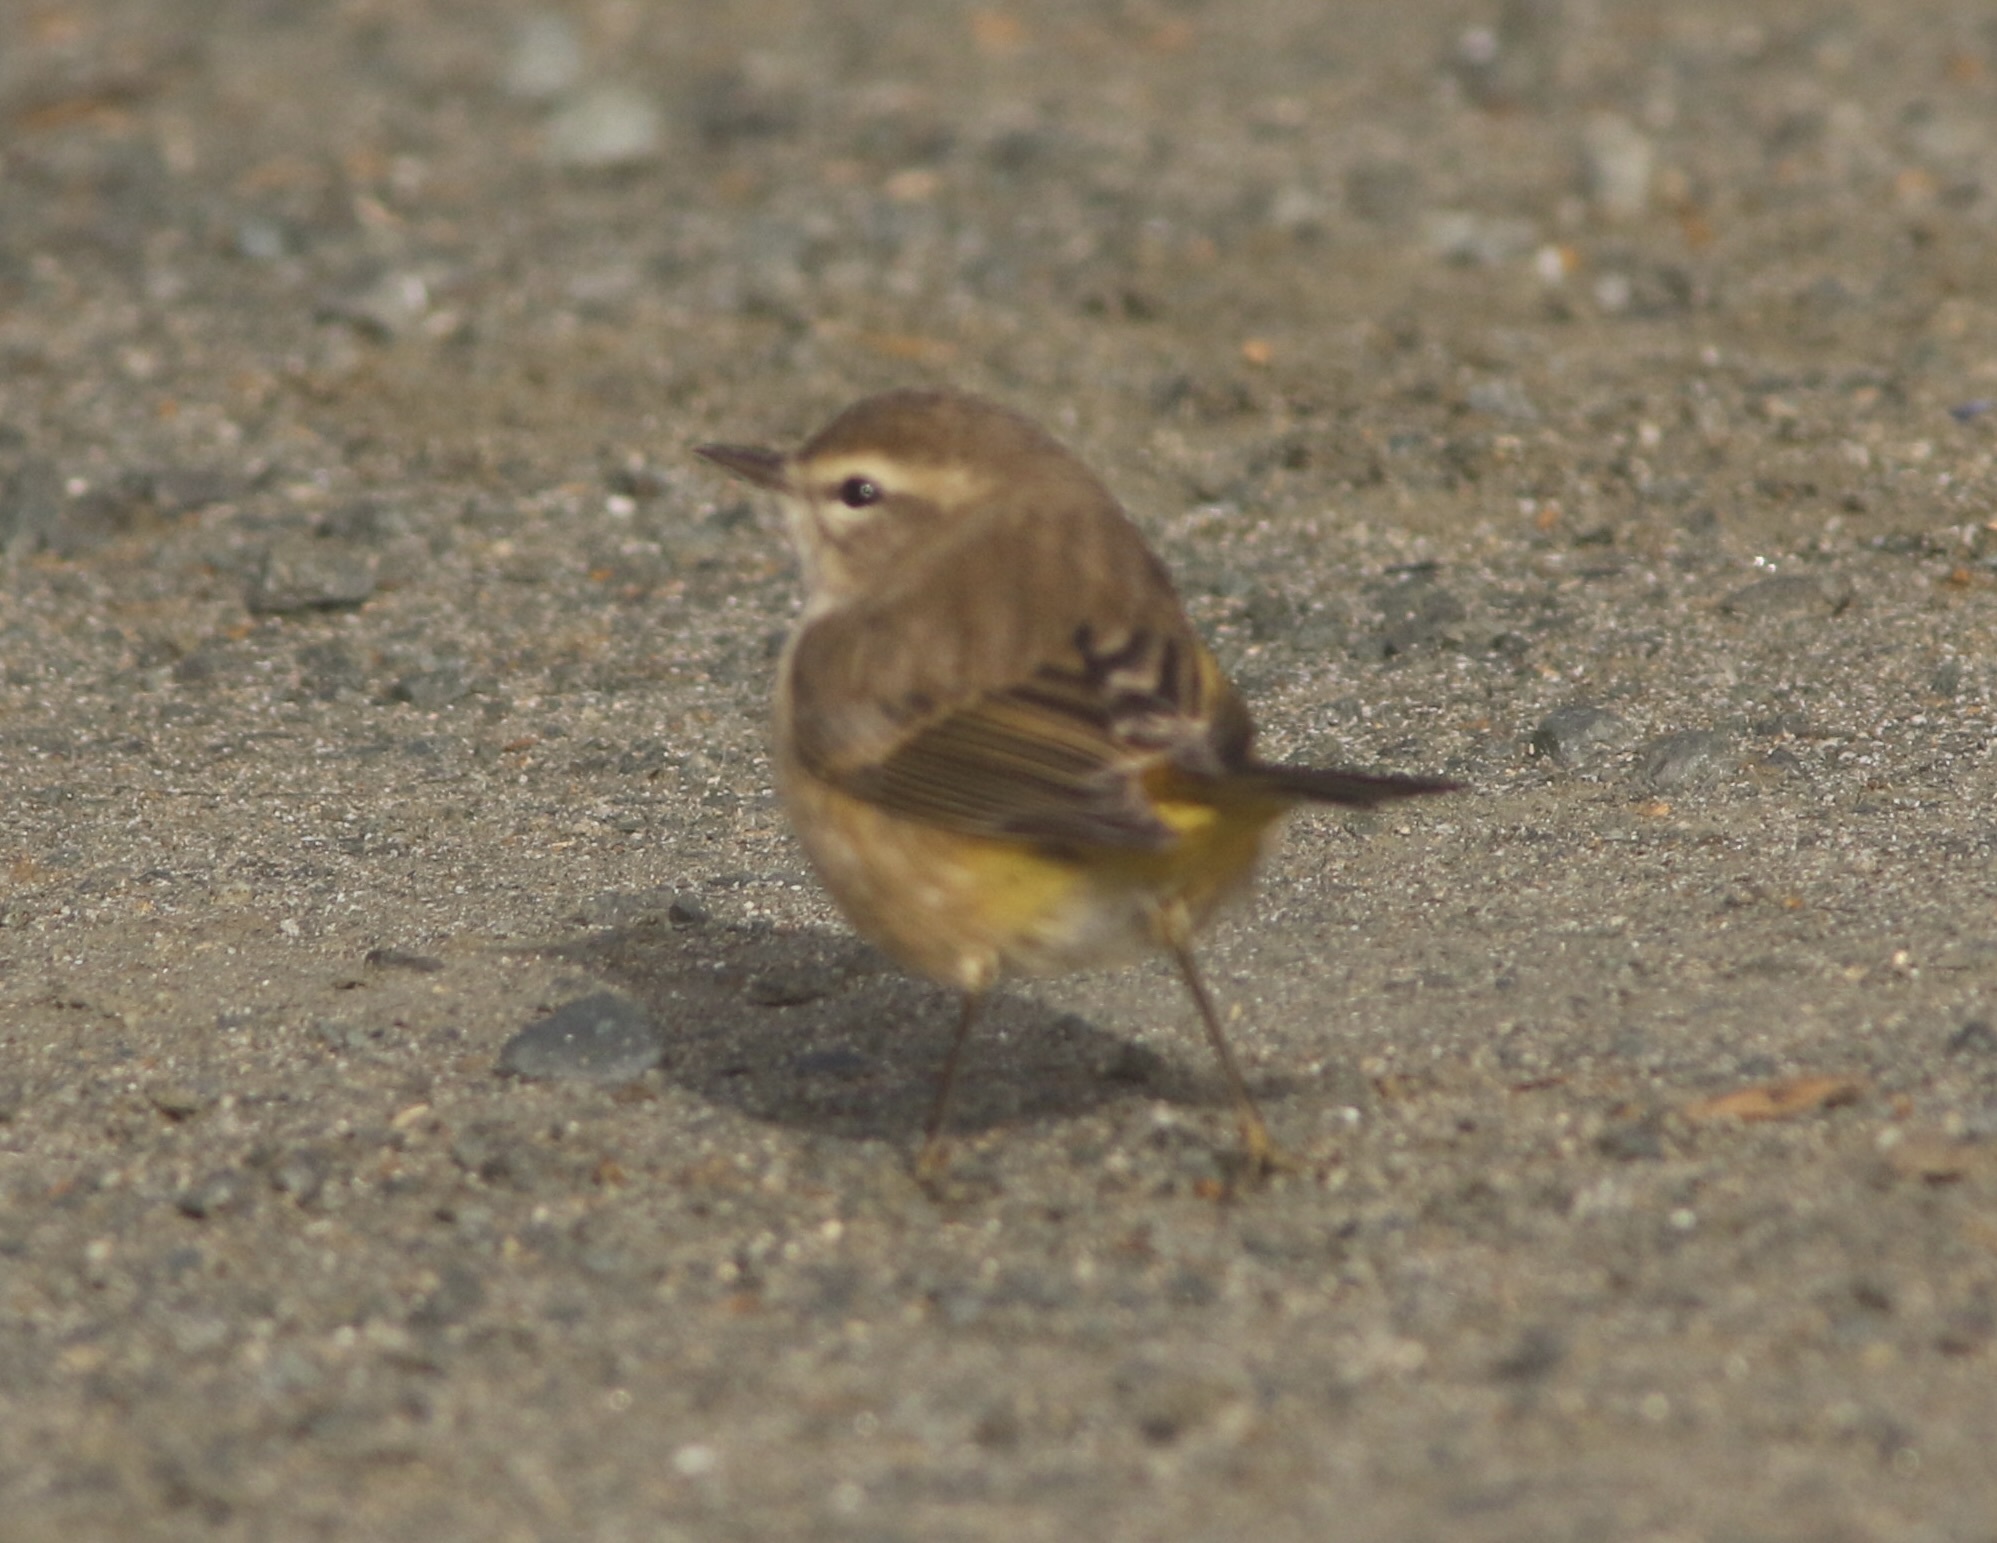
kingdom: Animalia
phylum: Chordata
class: Aves
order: Passeriformes
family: Parulidae
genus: Setophaga
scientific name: Setophaga palmarum
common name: Palm warbler
